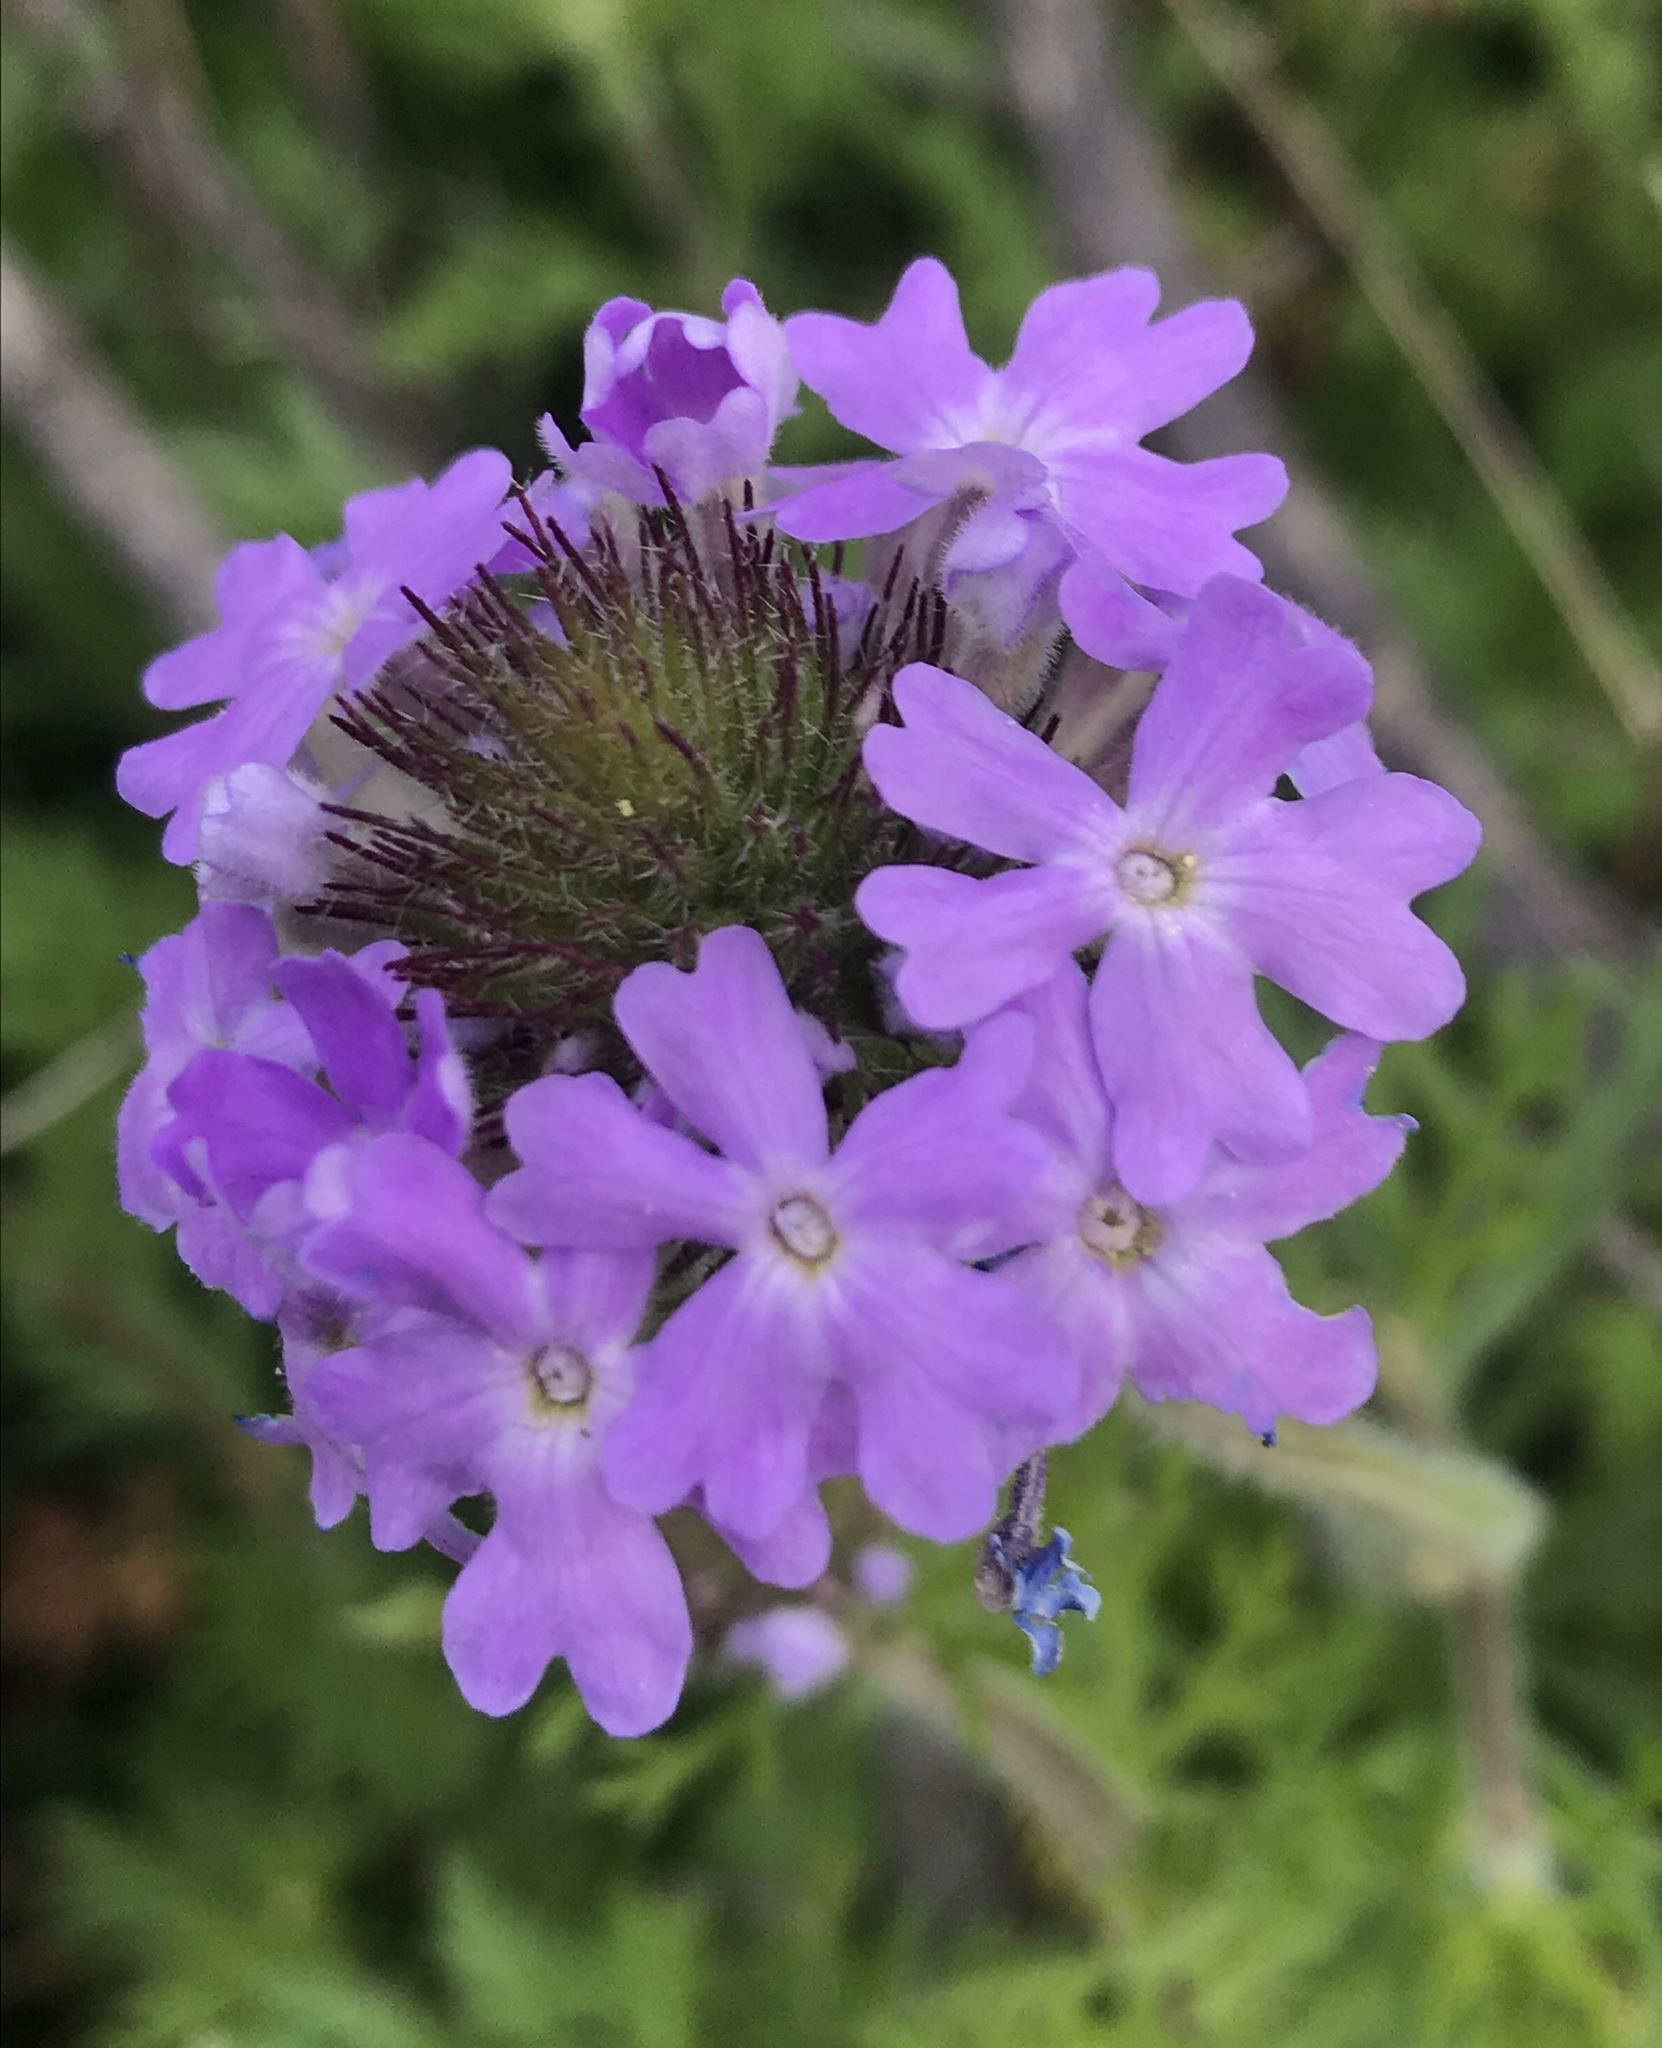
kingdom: Plantae
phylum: Tracheophyta
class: Magnoliopsida
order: Lamiales
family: Verbenaceae
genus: Verbena
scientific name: Verbena bipinnatifida
